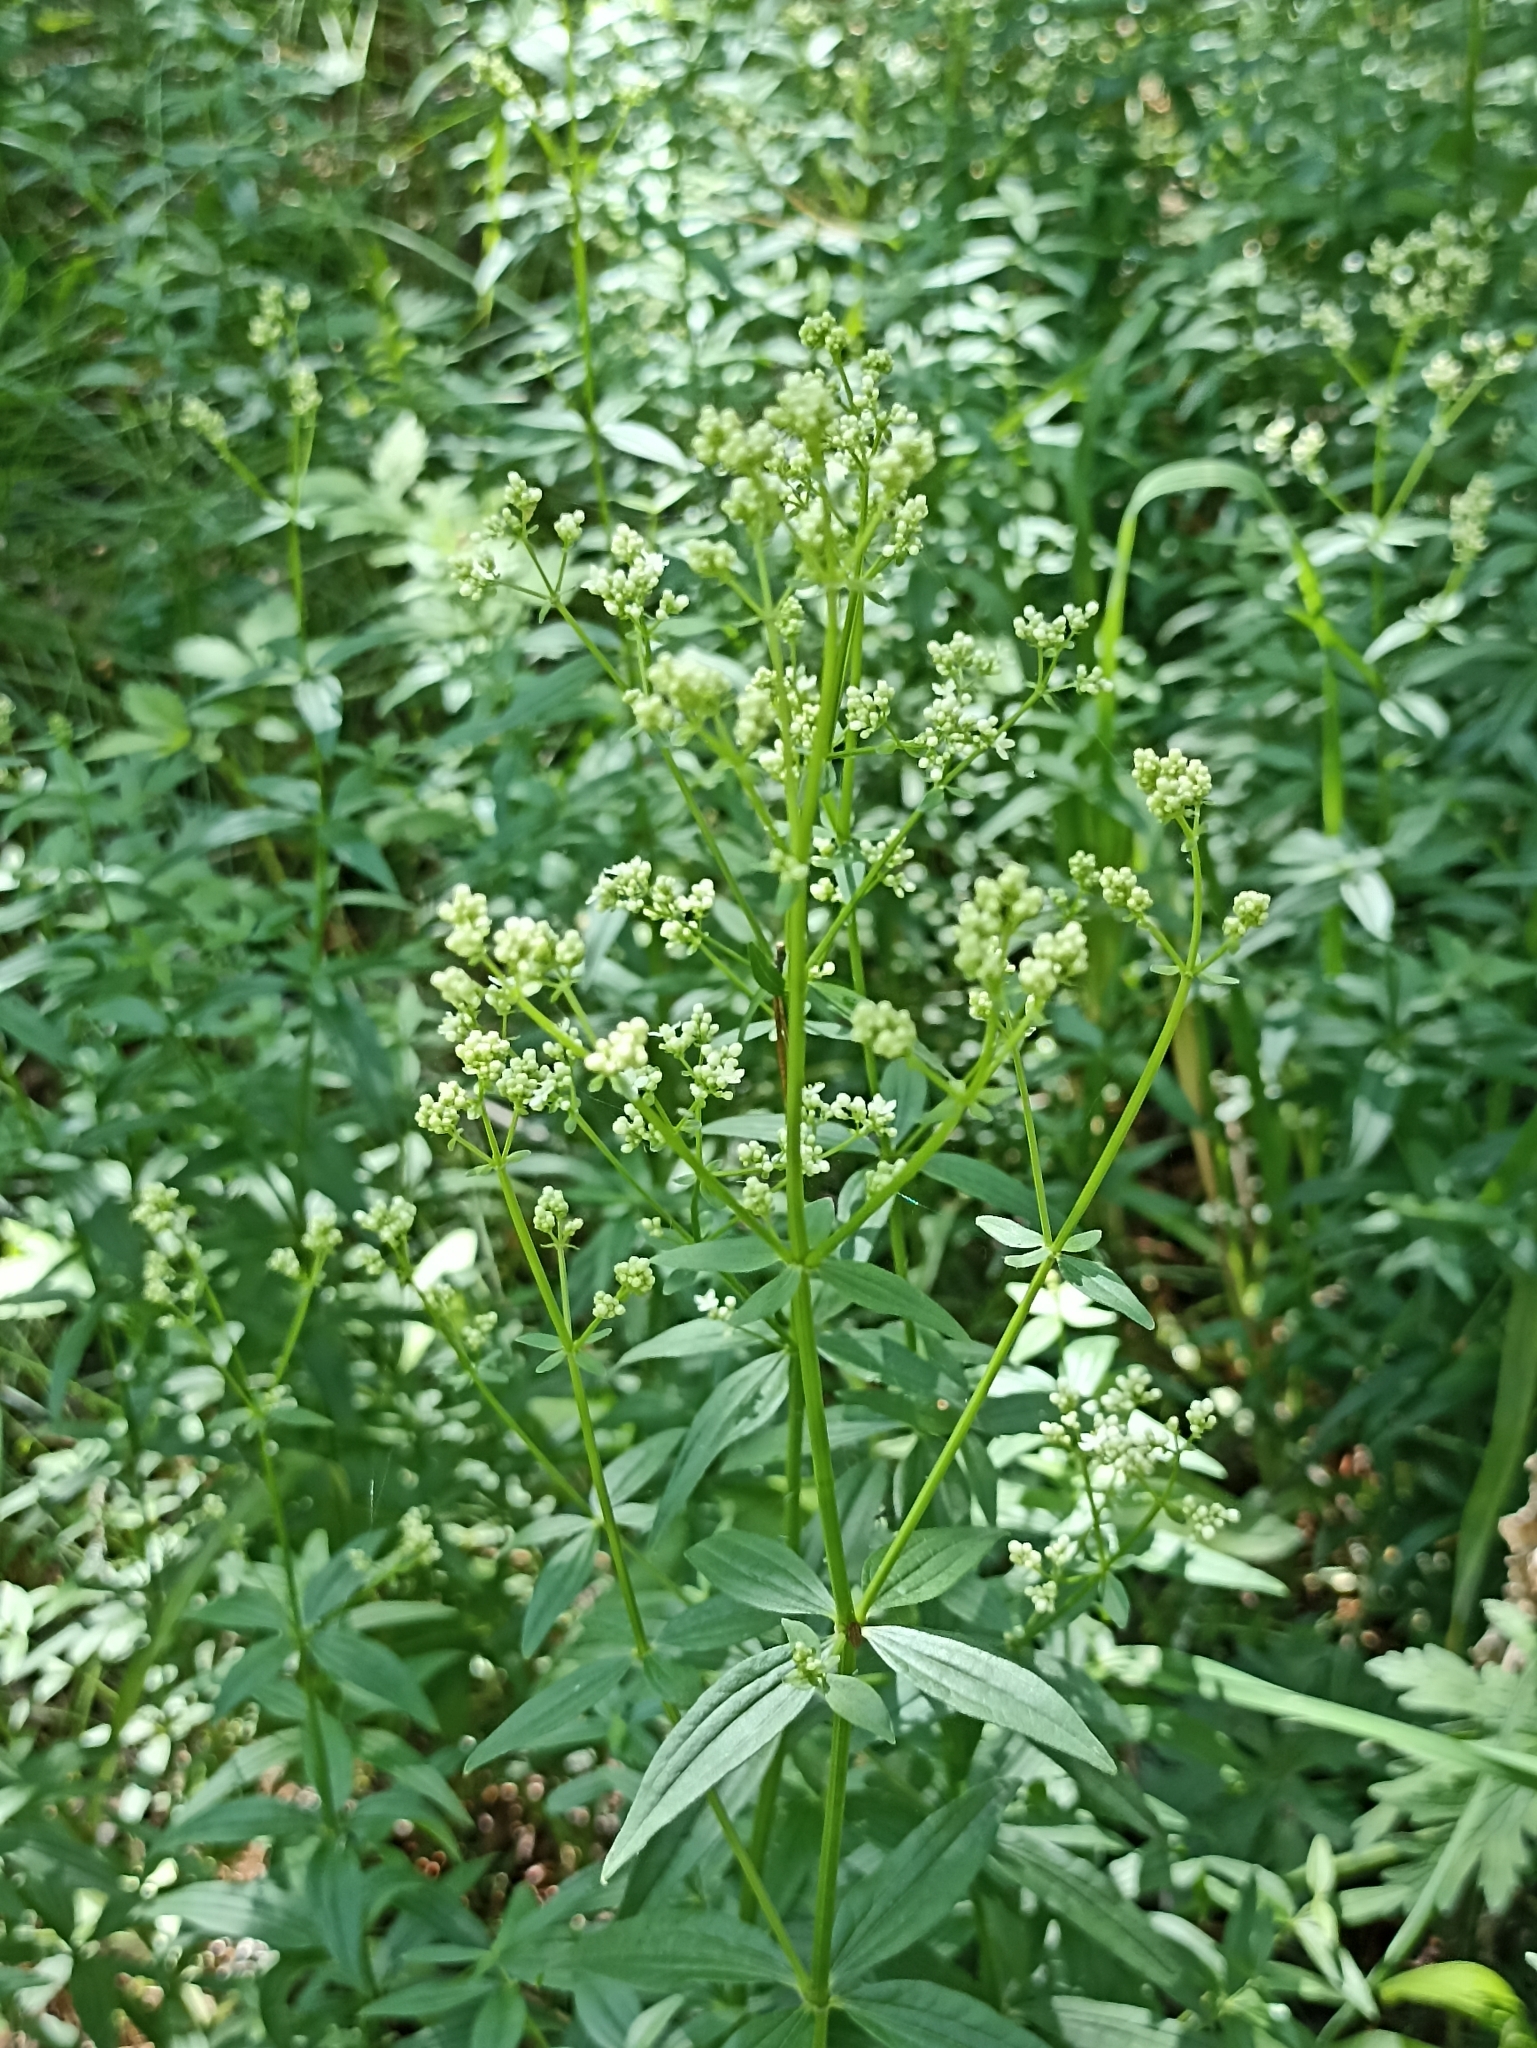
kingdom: Plantae
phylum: Tracheophyta
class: Magnoliopsida
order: Gentianales
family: Rubiaceae
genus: Galium
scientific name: Galium boreale
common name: Northern bedstraw
